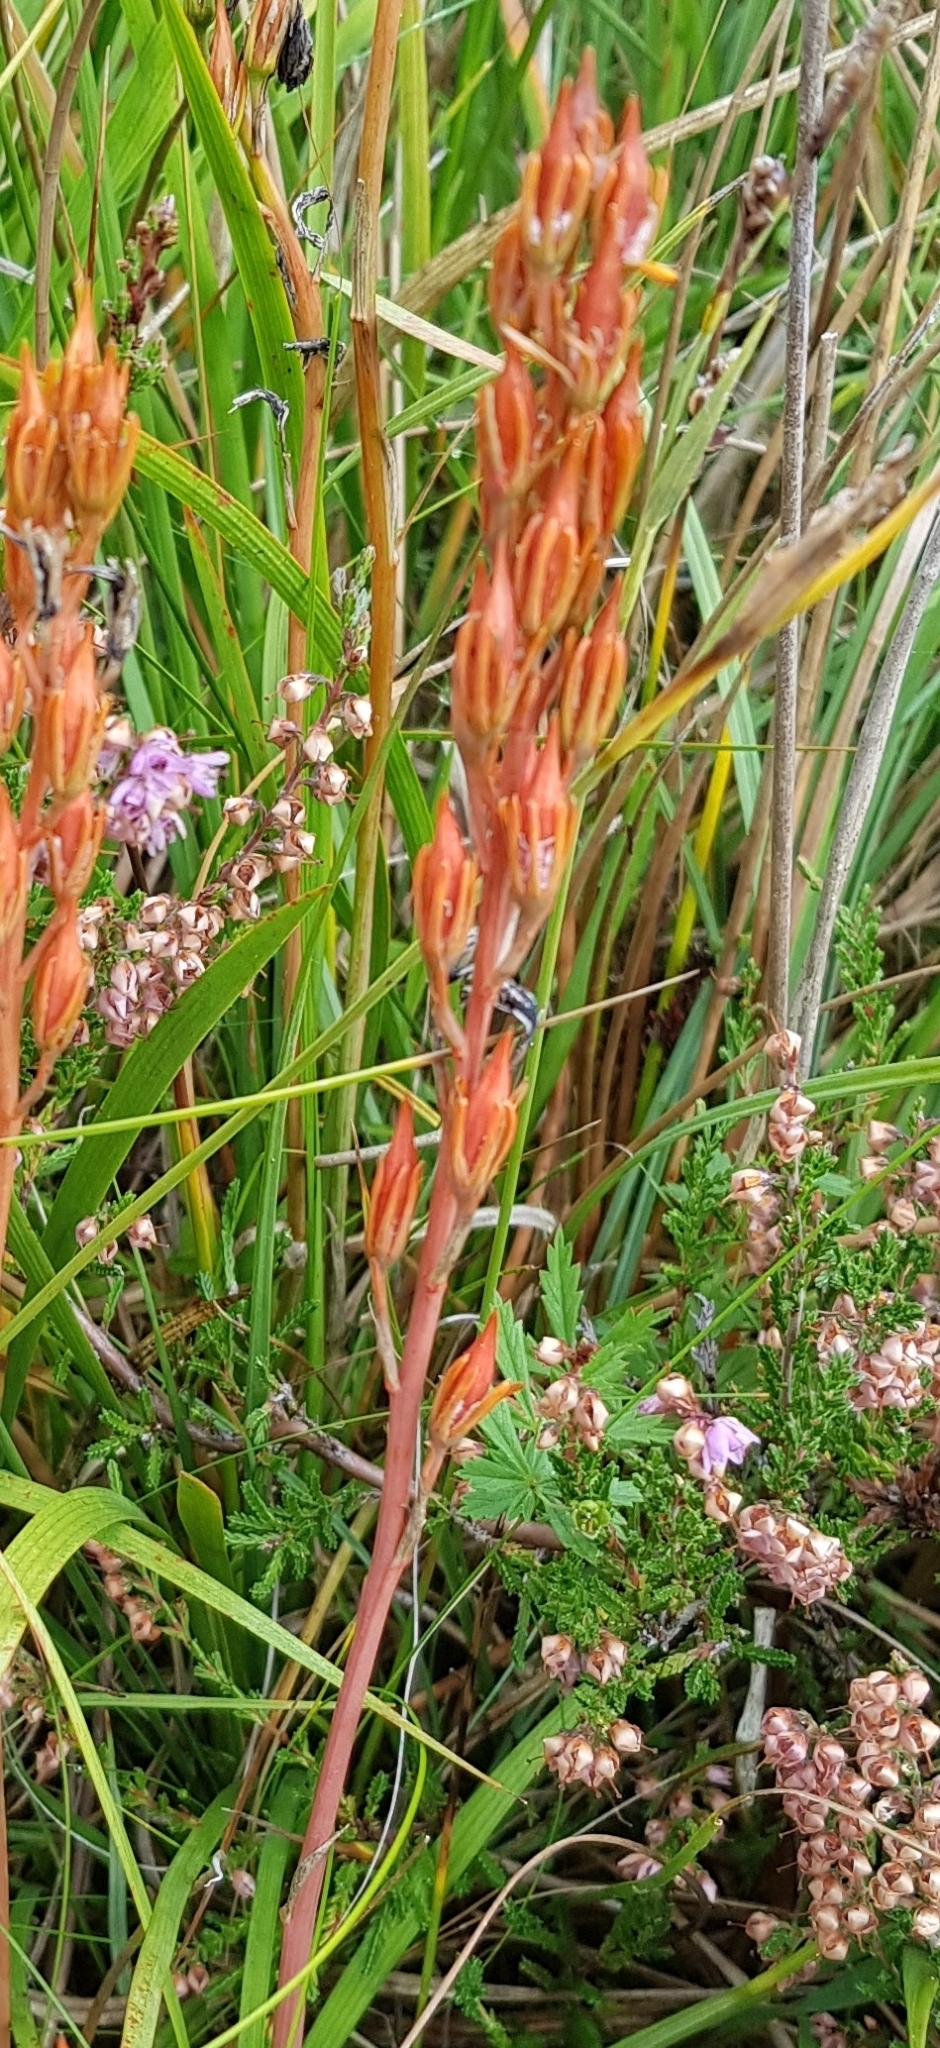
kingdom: Plantae
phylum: Tracheophyta
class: Liliopsida
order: Dioscoreales
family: Nartheciaceae
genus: Narthecium
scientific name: Narthecium ossifragum
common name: Bog asphodel
